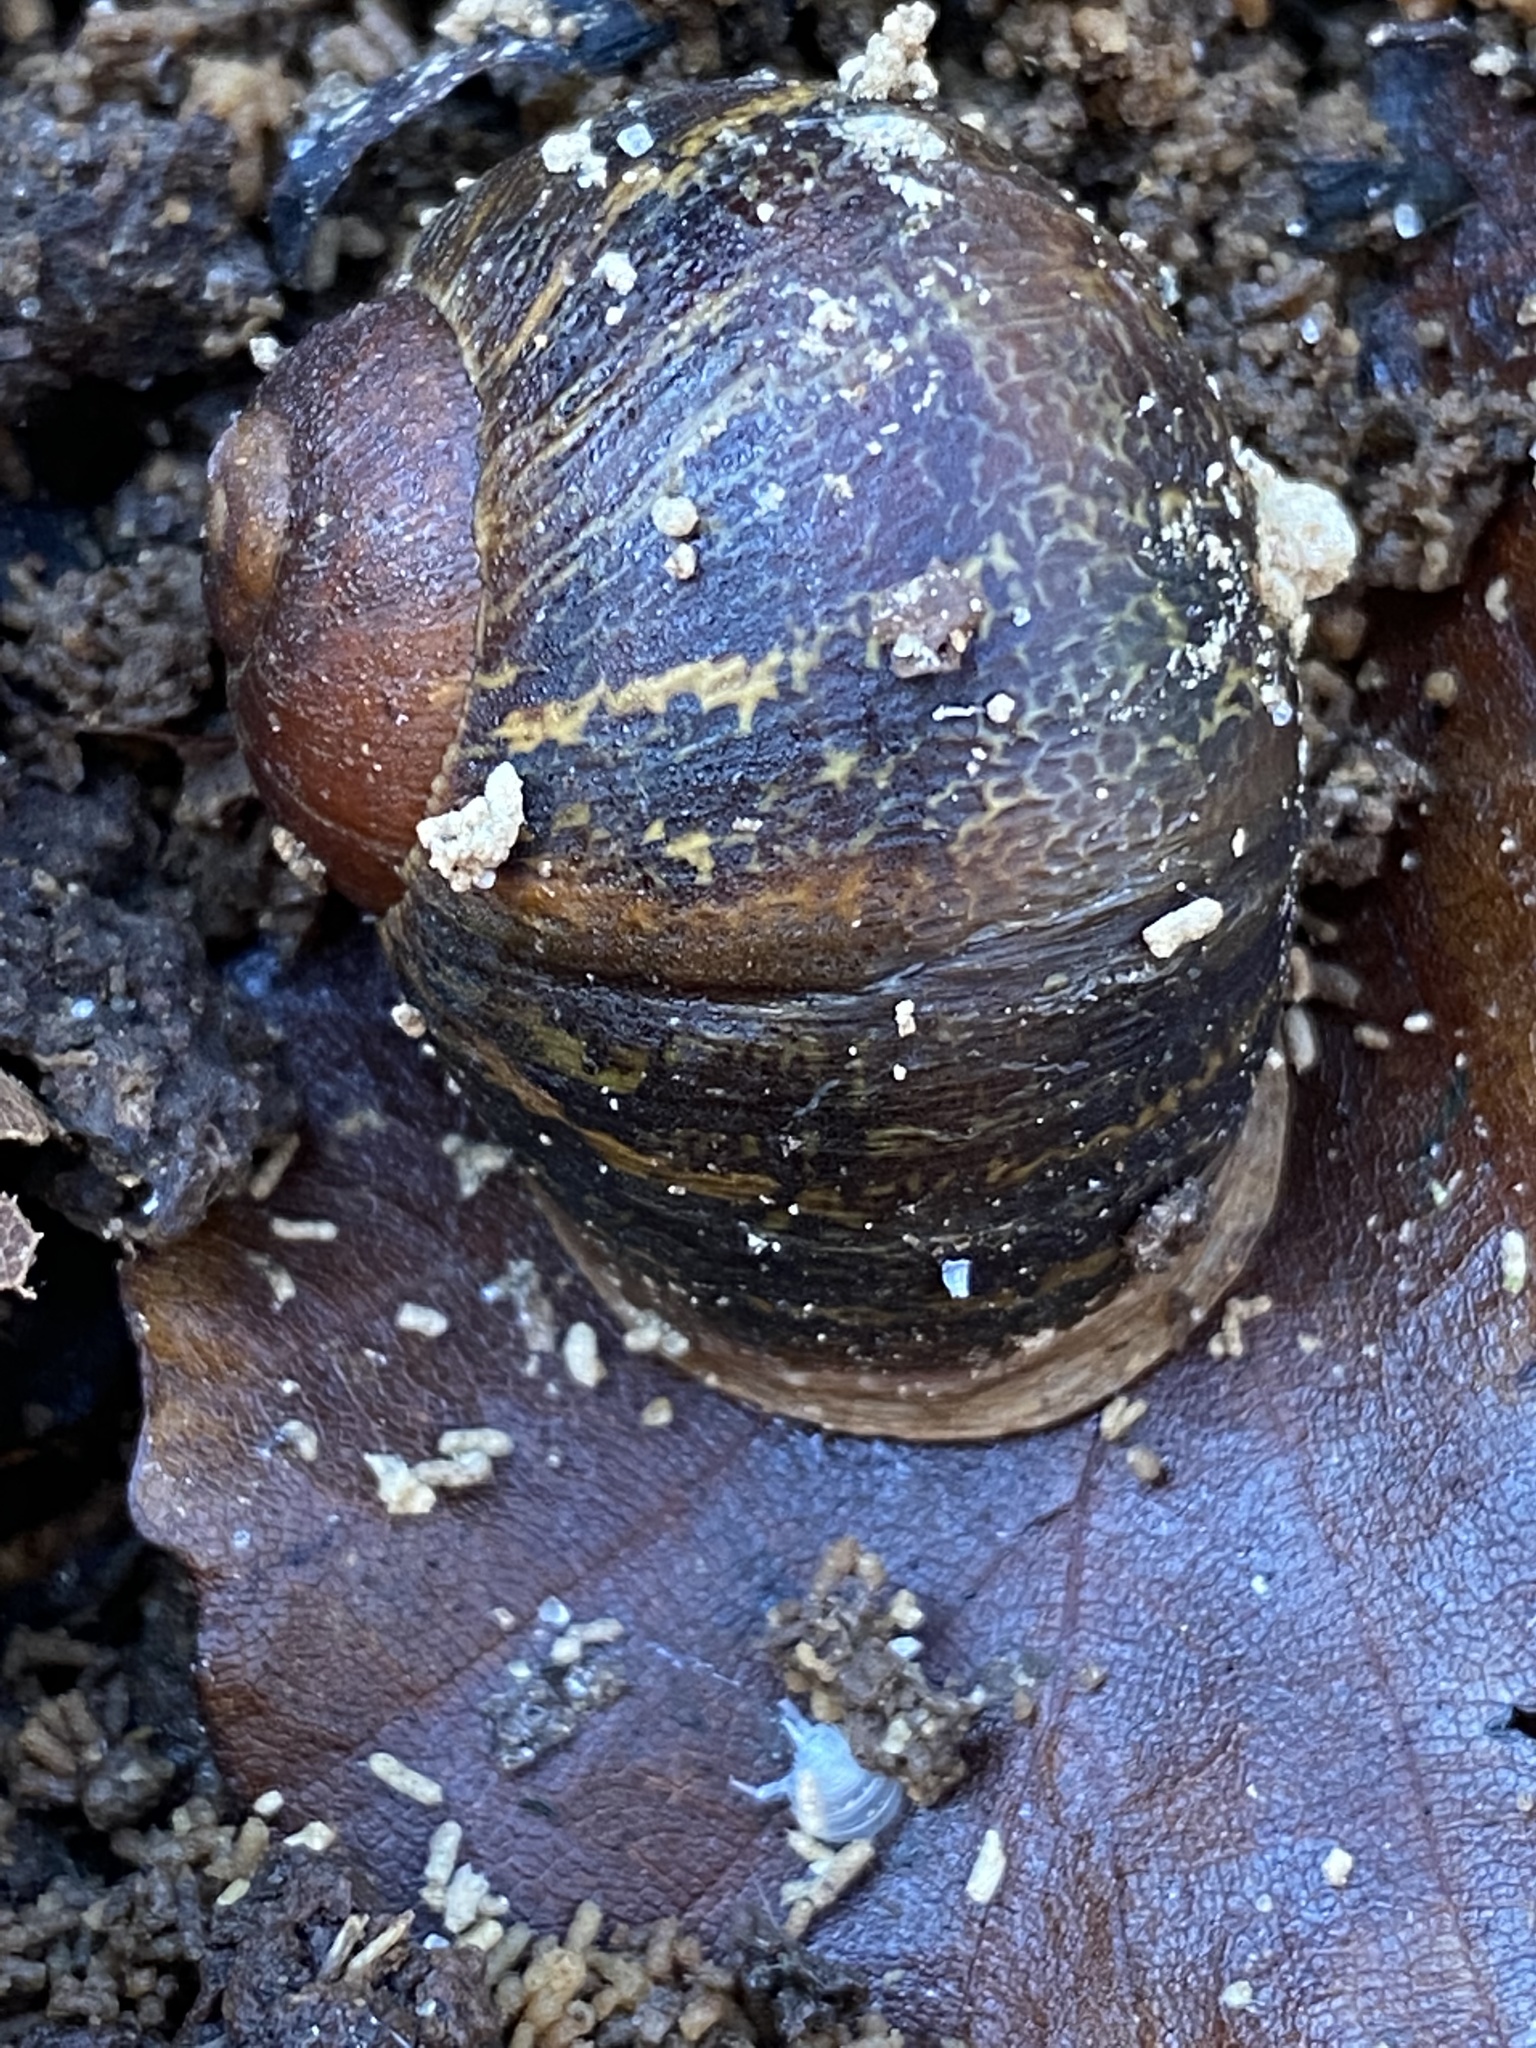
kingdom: Animalia
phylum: Mollusca
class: Gastropoda
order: Stylommatophora
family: Helicidae
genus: Cornu
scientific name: Cornu aspersum
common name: Brown garden snail
